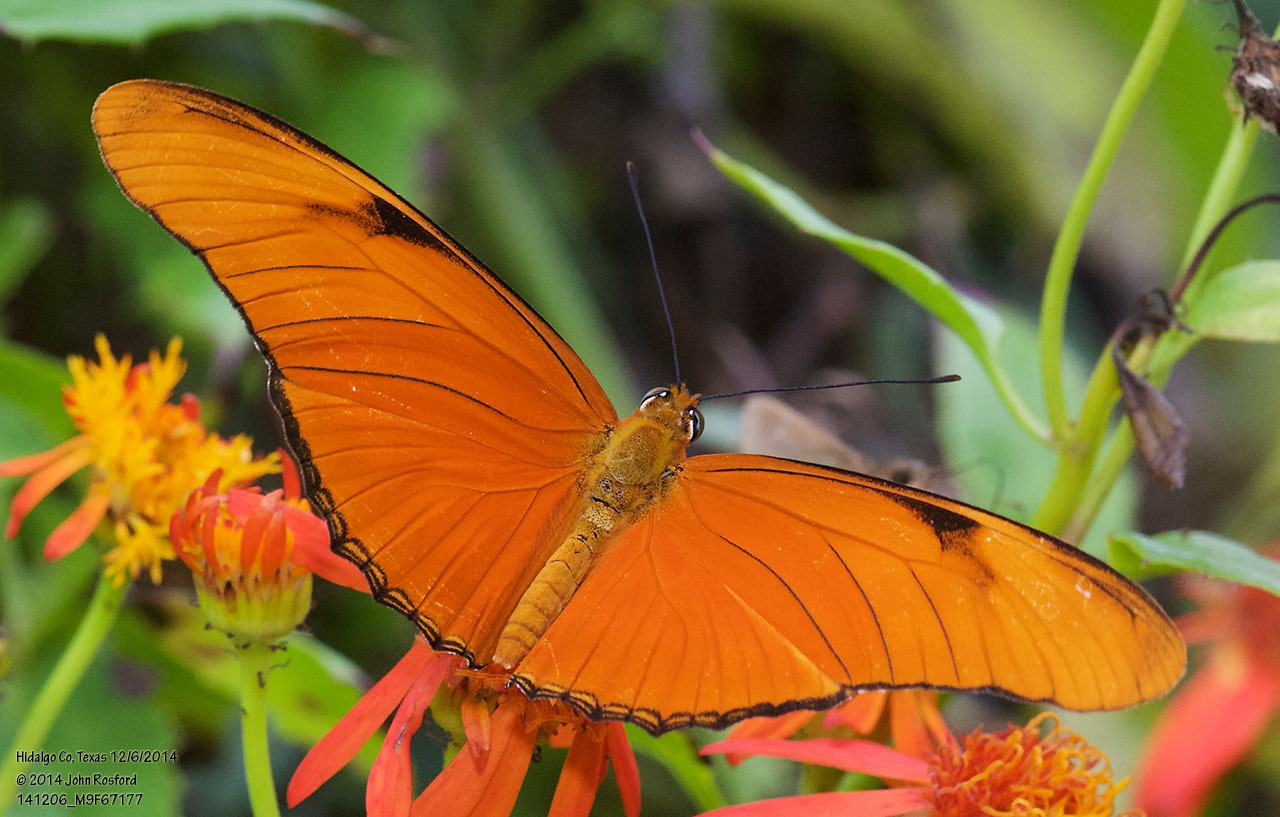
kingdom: Animalia
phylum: Arthropoda
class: Insecta
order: Lepidoptera
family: Nymphalidae
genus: Dryas
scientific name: Dryas iulia
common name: Flambeau
